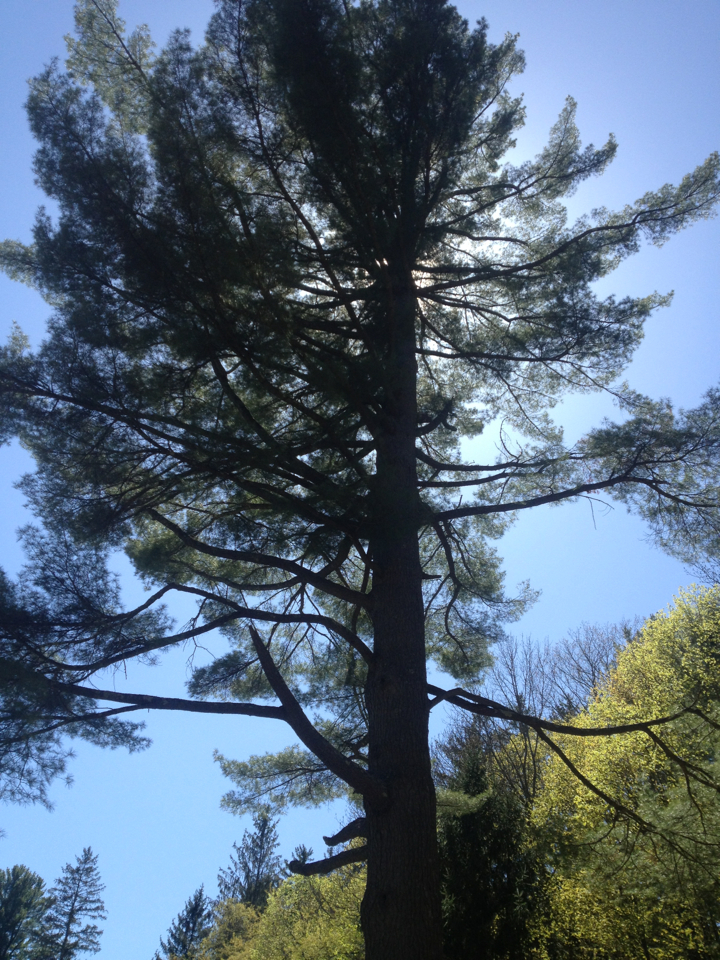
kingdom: Plantae
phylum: Tracheophyta
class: Pinopsida
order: Pinales
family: Pinaceae
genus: Pinus
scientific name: Pinus strobus
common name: Weymouth pine
